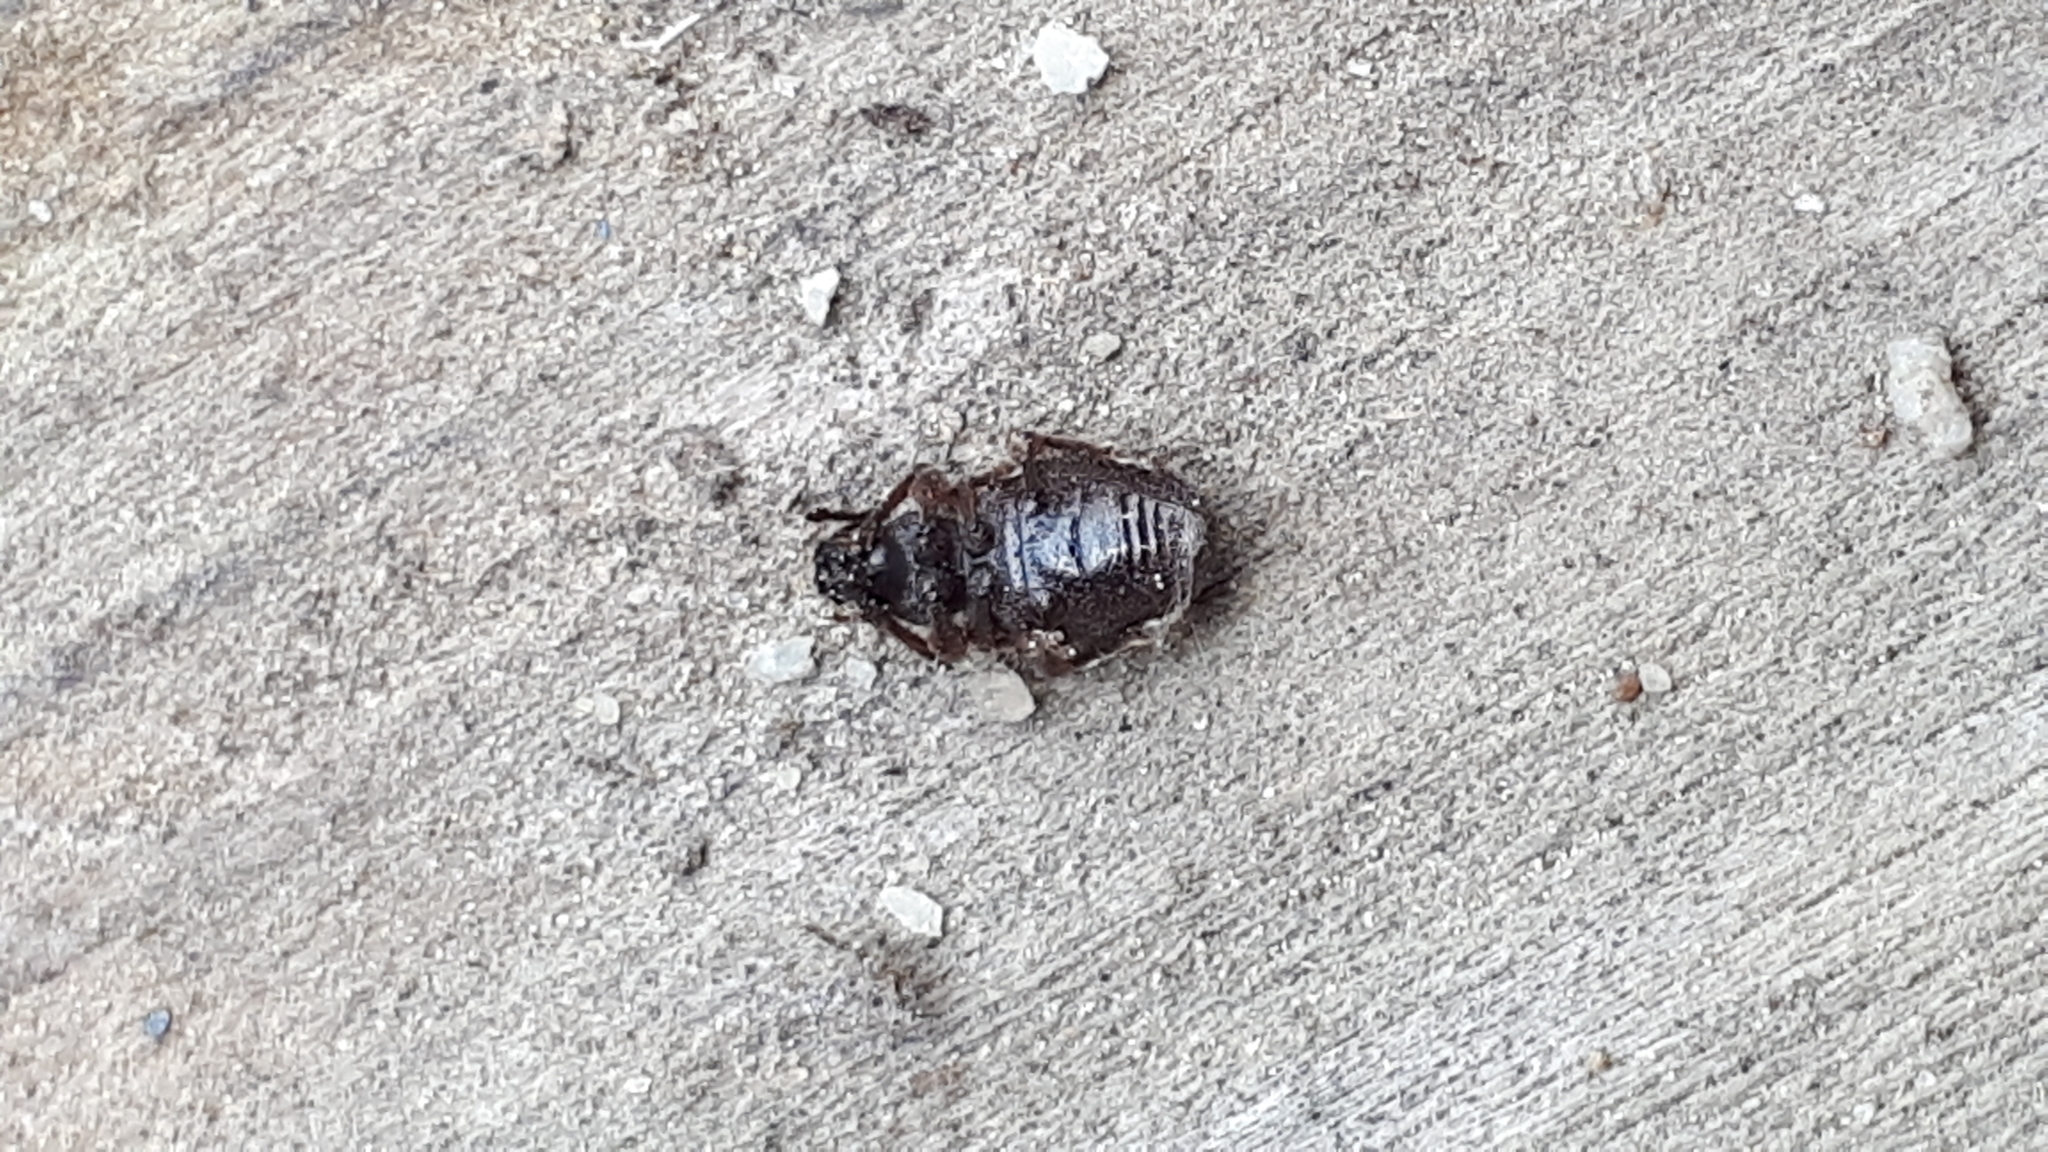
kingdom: Animalia
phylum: Arthropoda
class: Insecta
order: Coleoptera
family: Curculionidae
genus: Otiorhynchus
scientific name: Otiorhynchus ovatus
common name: Strawberry root weevil
